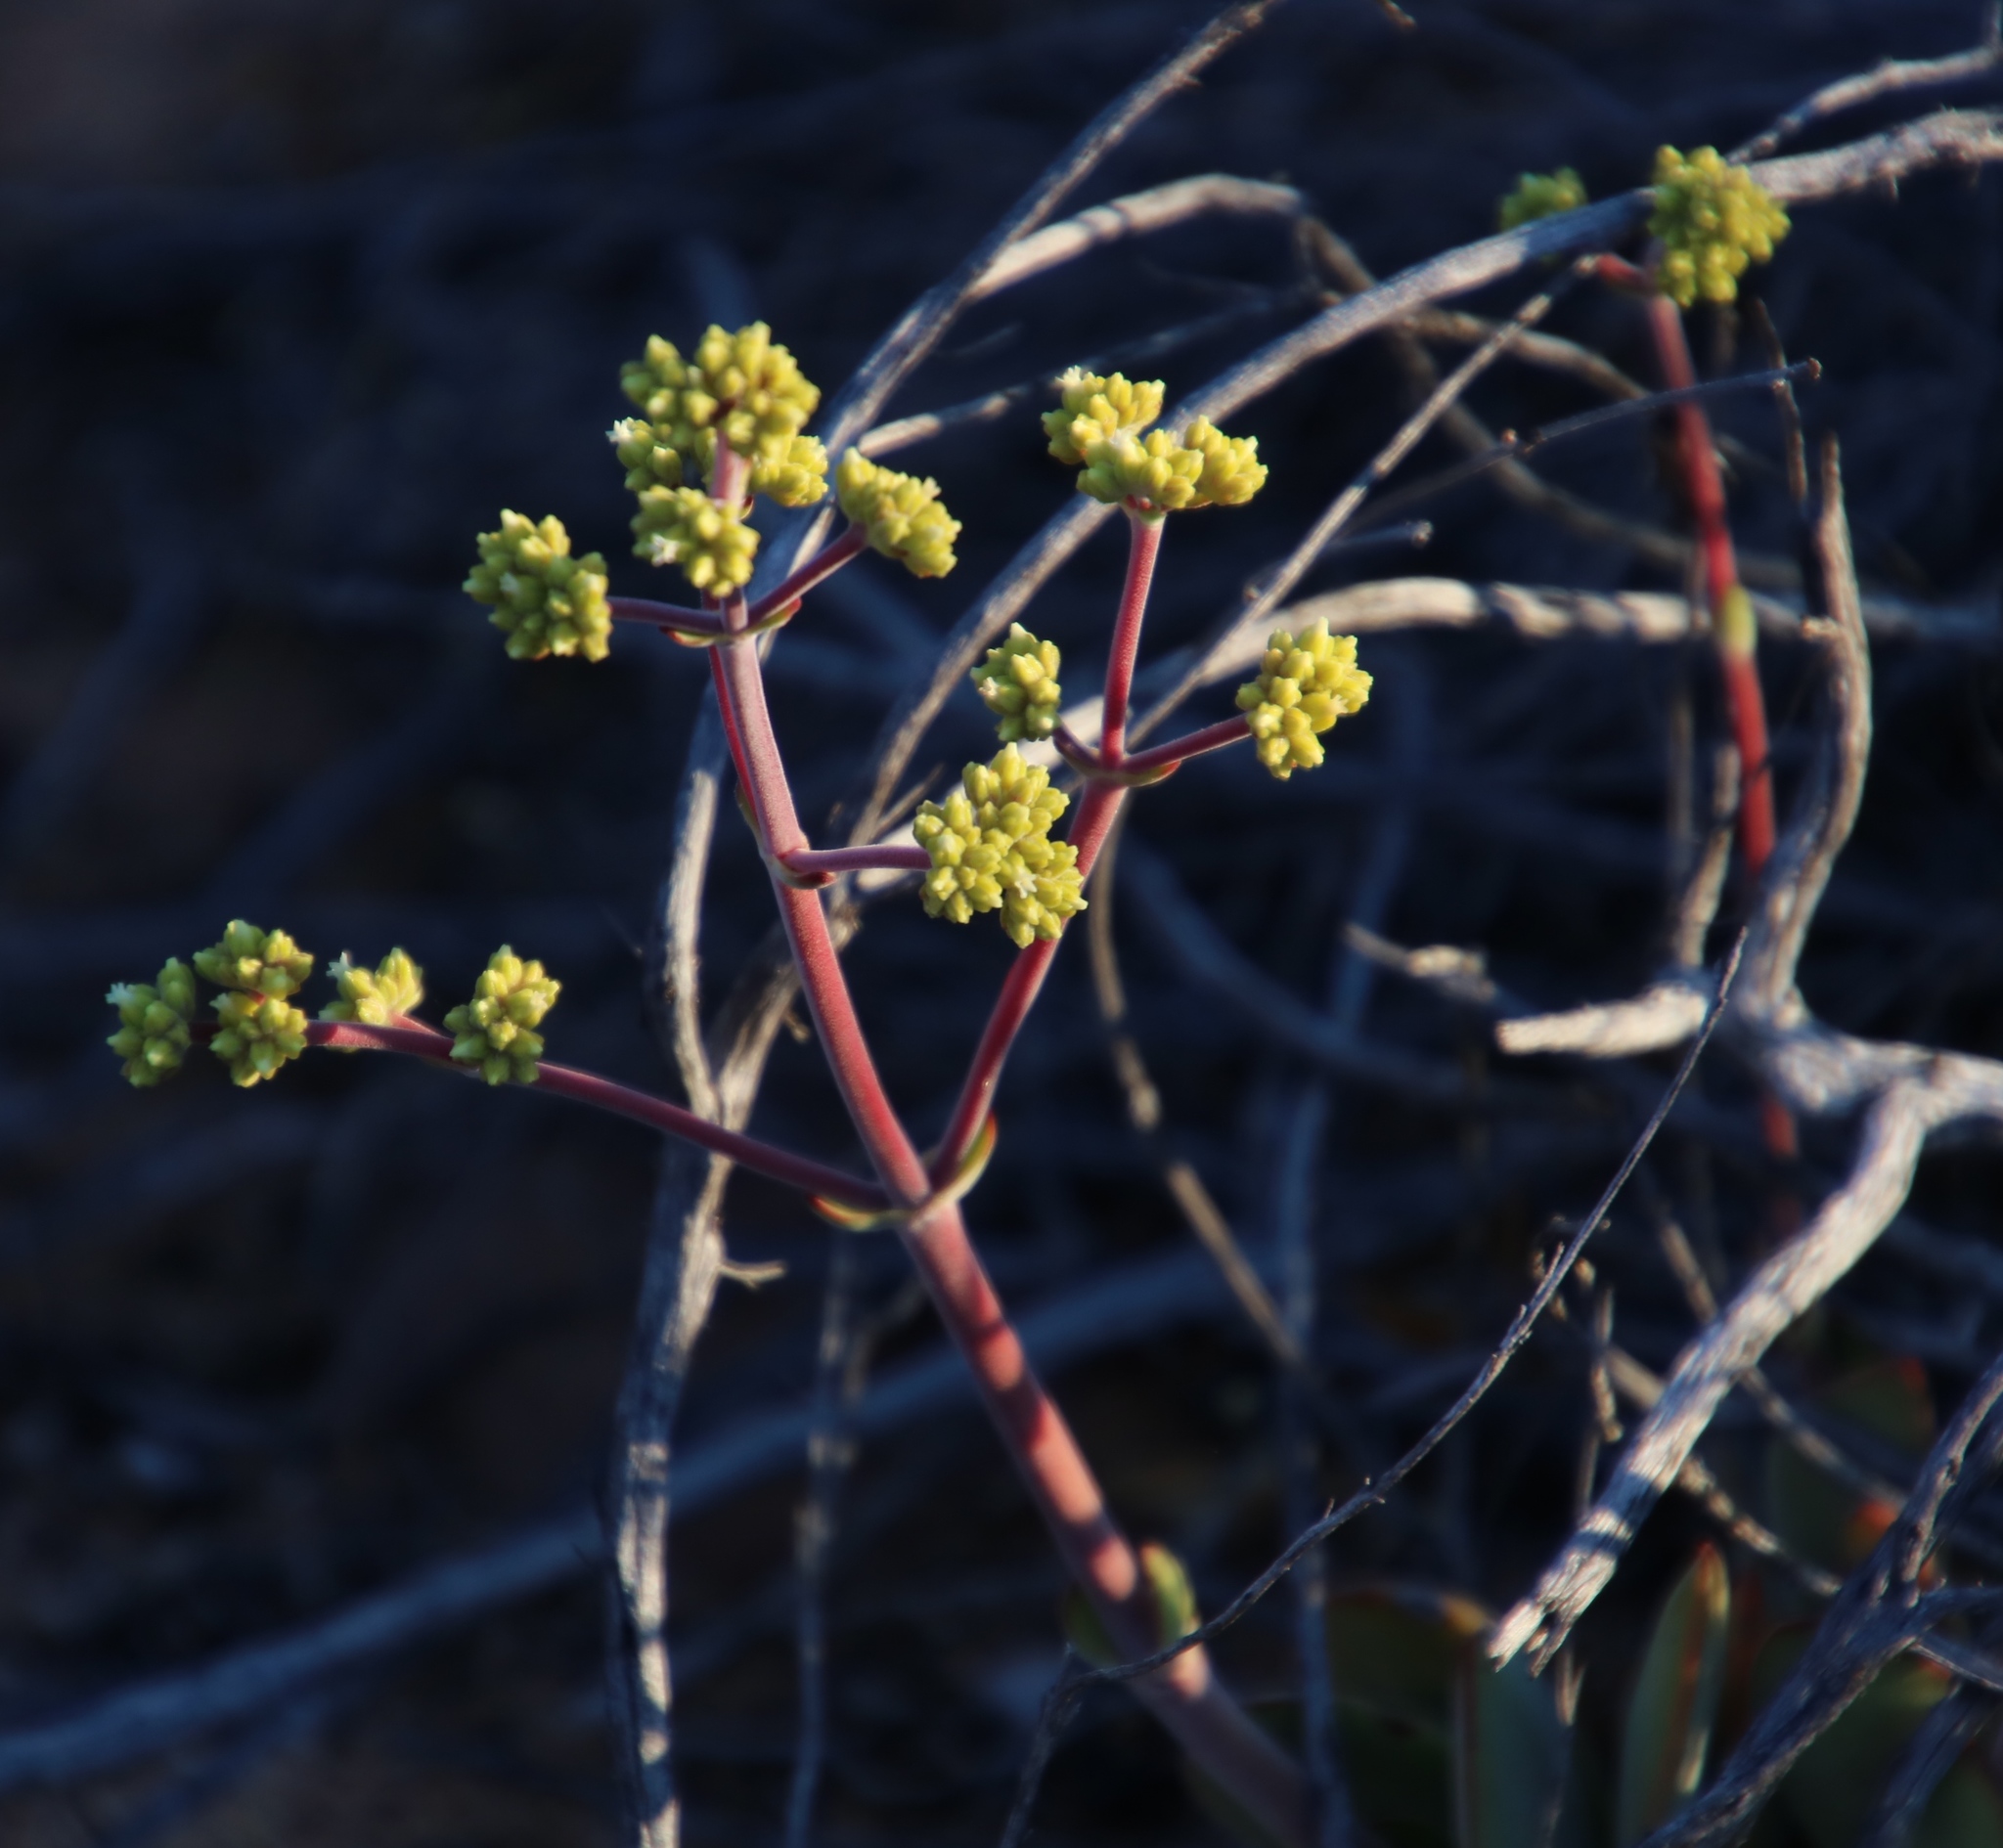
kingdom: Plantae
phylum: Tracheophyta
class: Magnoliopsida
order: Saxifragales
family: Crassulaceae
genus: Crassula
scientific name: Crassula atropurpurea
